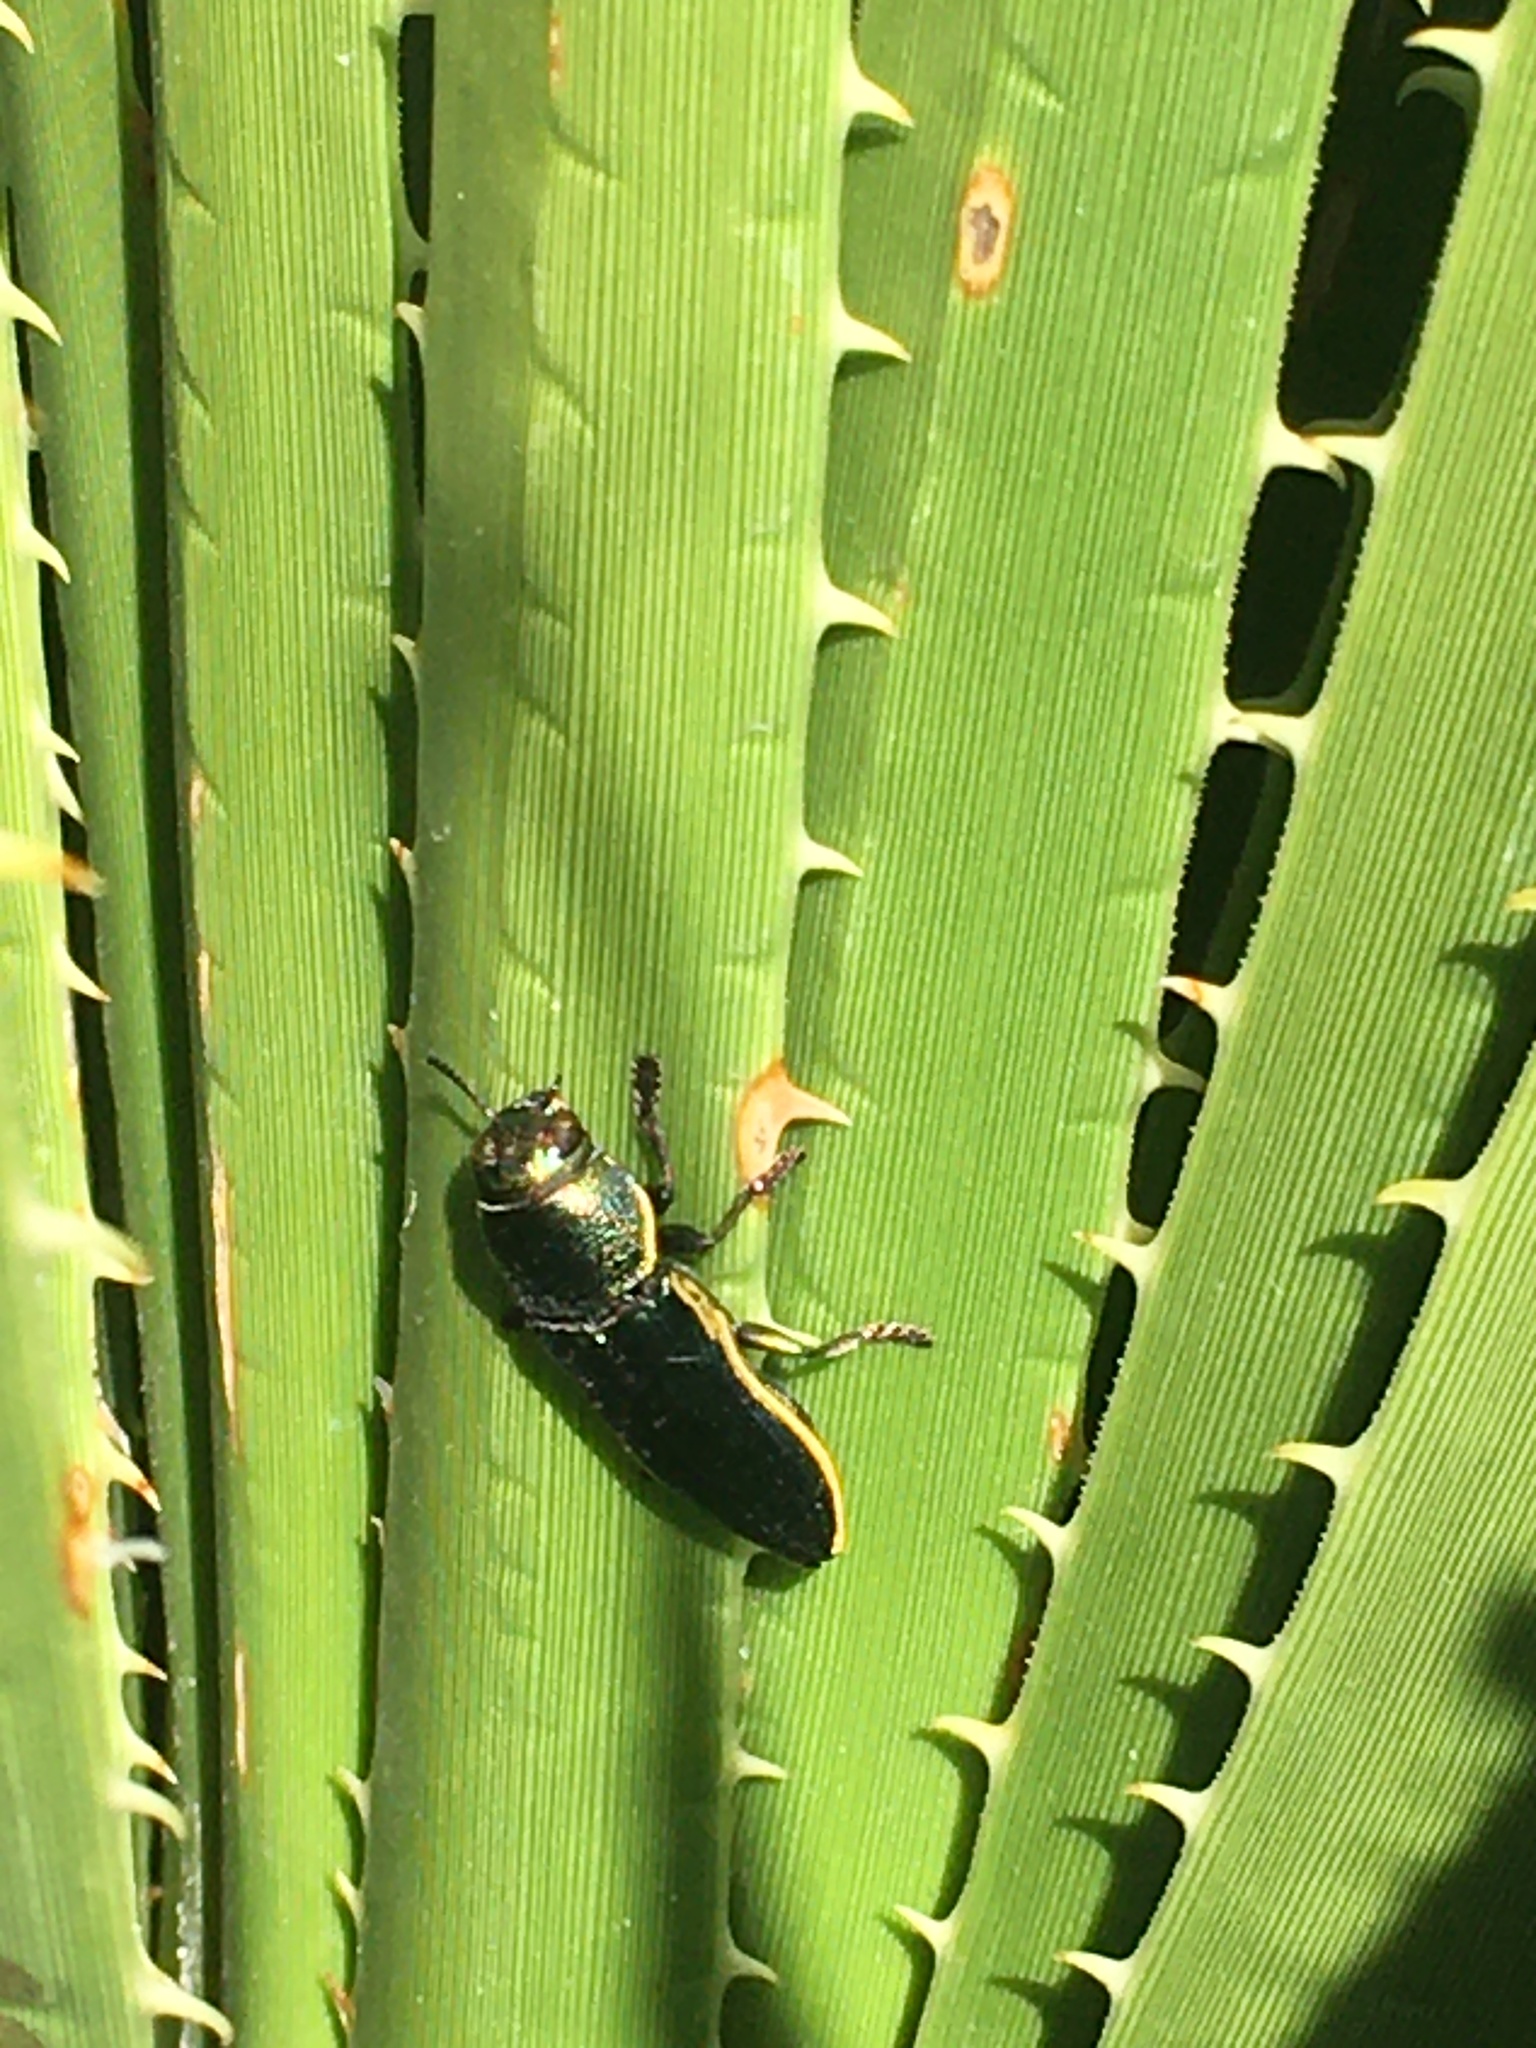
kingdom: Animalia
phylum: Arthropoda
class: Insecta
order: Coleoptera
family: Buprestidae
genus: Thrincopyge
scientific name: Thrincopyge ambiens
